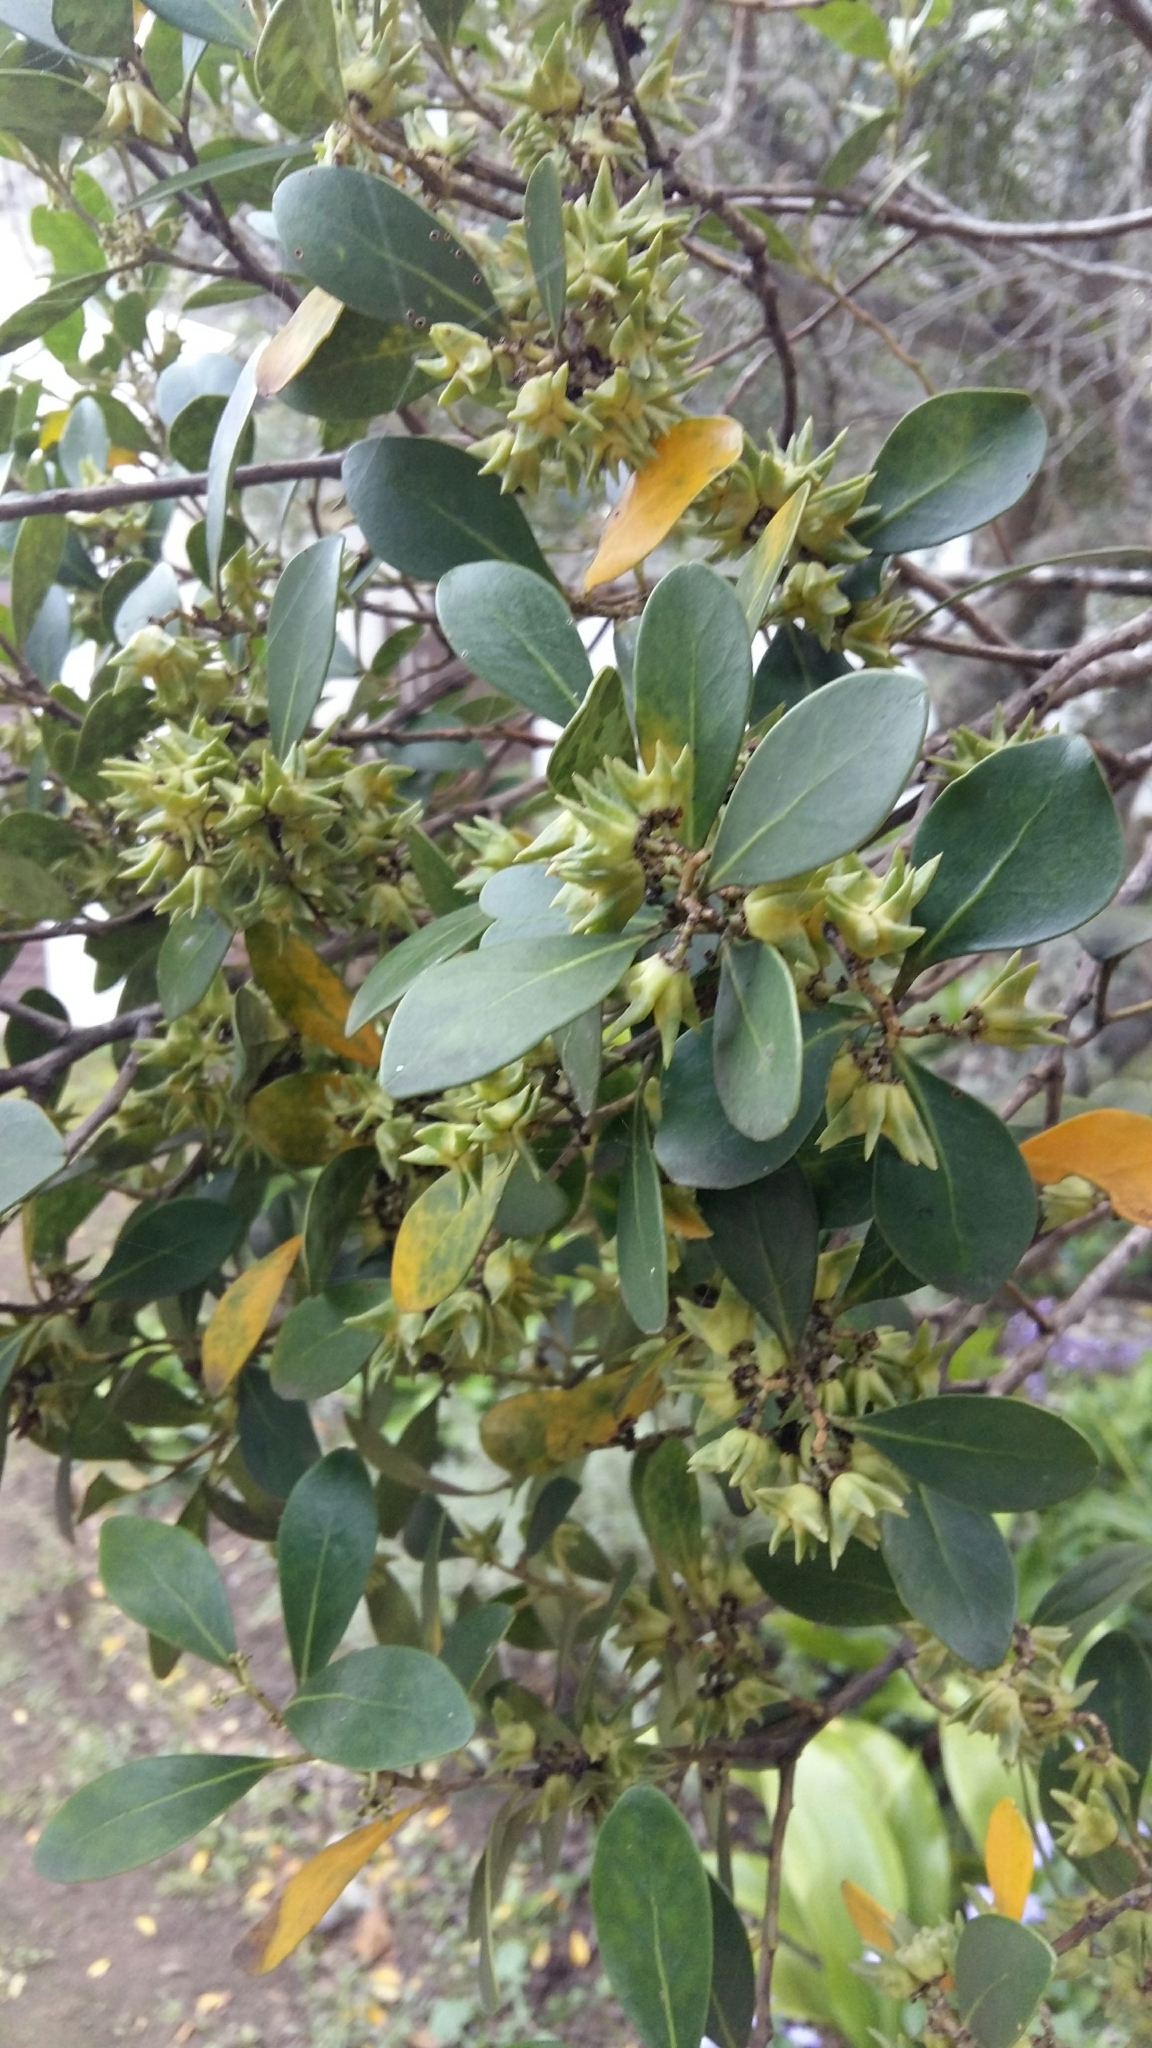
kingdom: Plantae
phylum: Tracheophyta
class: Magnoliopsida
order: Celastrales
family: Celastraceae
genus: Pterocelastrus
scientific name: Pterocelastrus tricuspidatus
